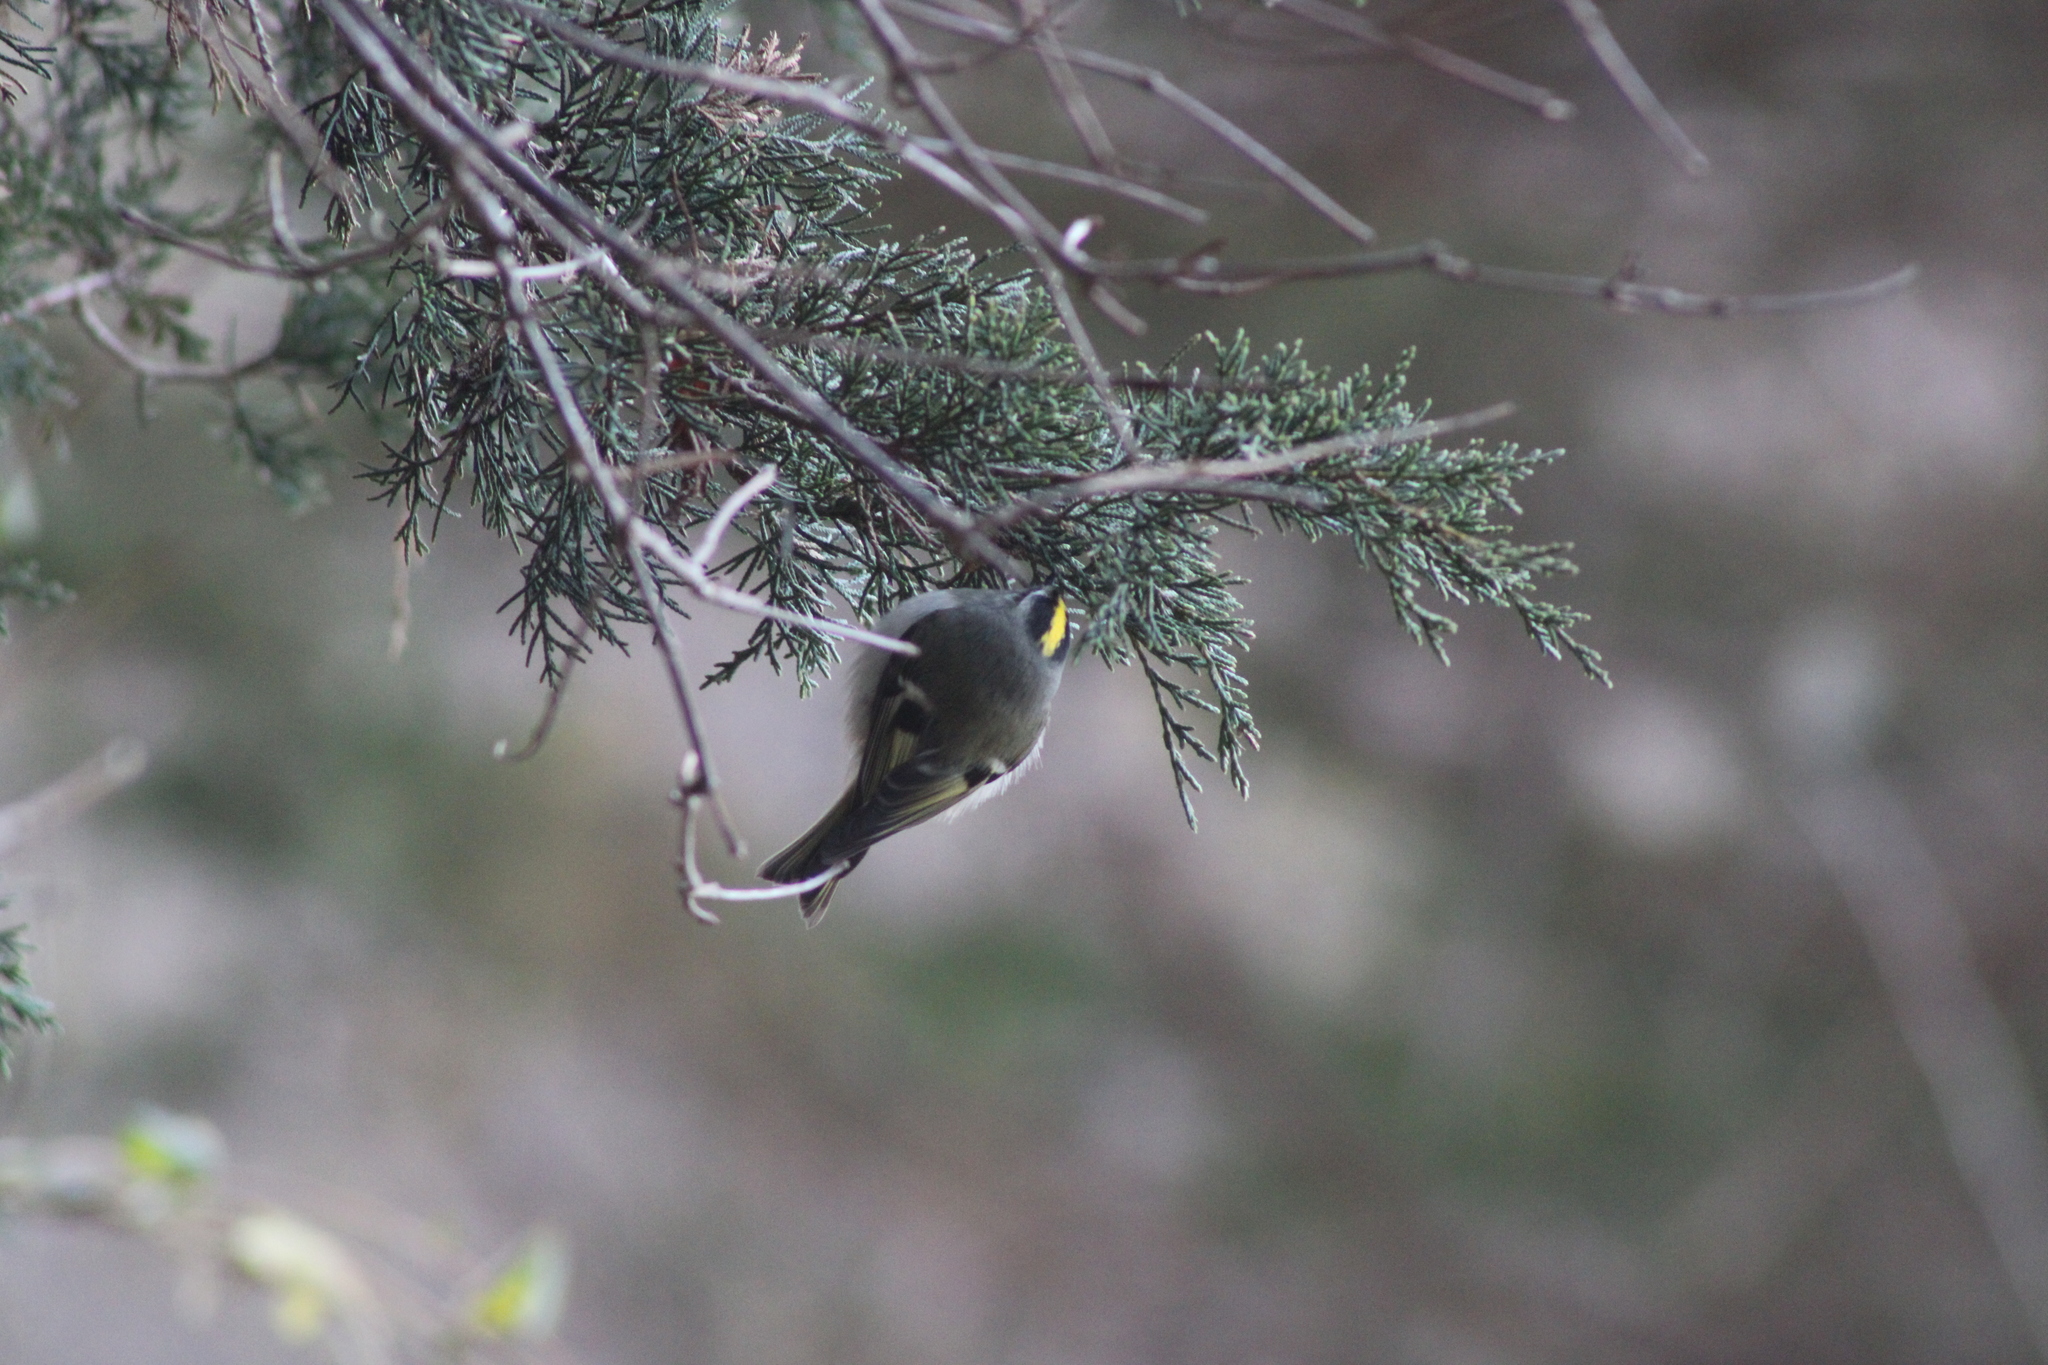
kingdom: Animalia
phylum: Chordata
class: Aves
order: Passeriformes
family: Regulidae
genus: Regulus
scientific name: Regulus satrapa
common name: Golden-crowned kinglet
